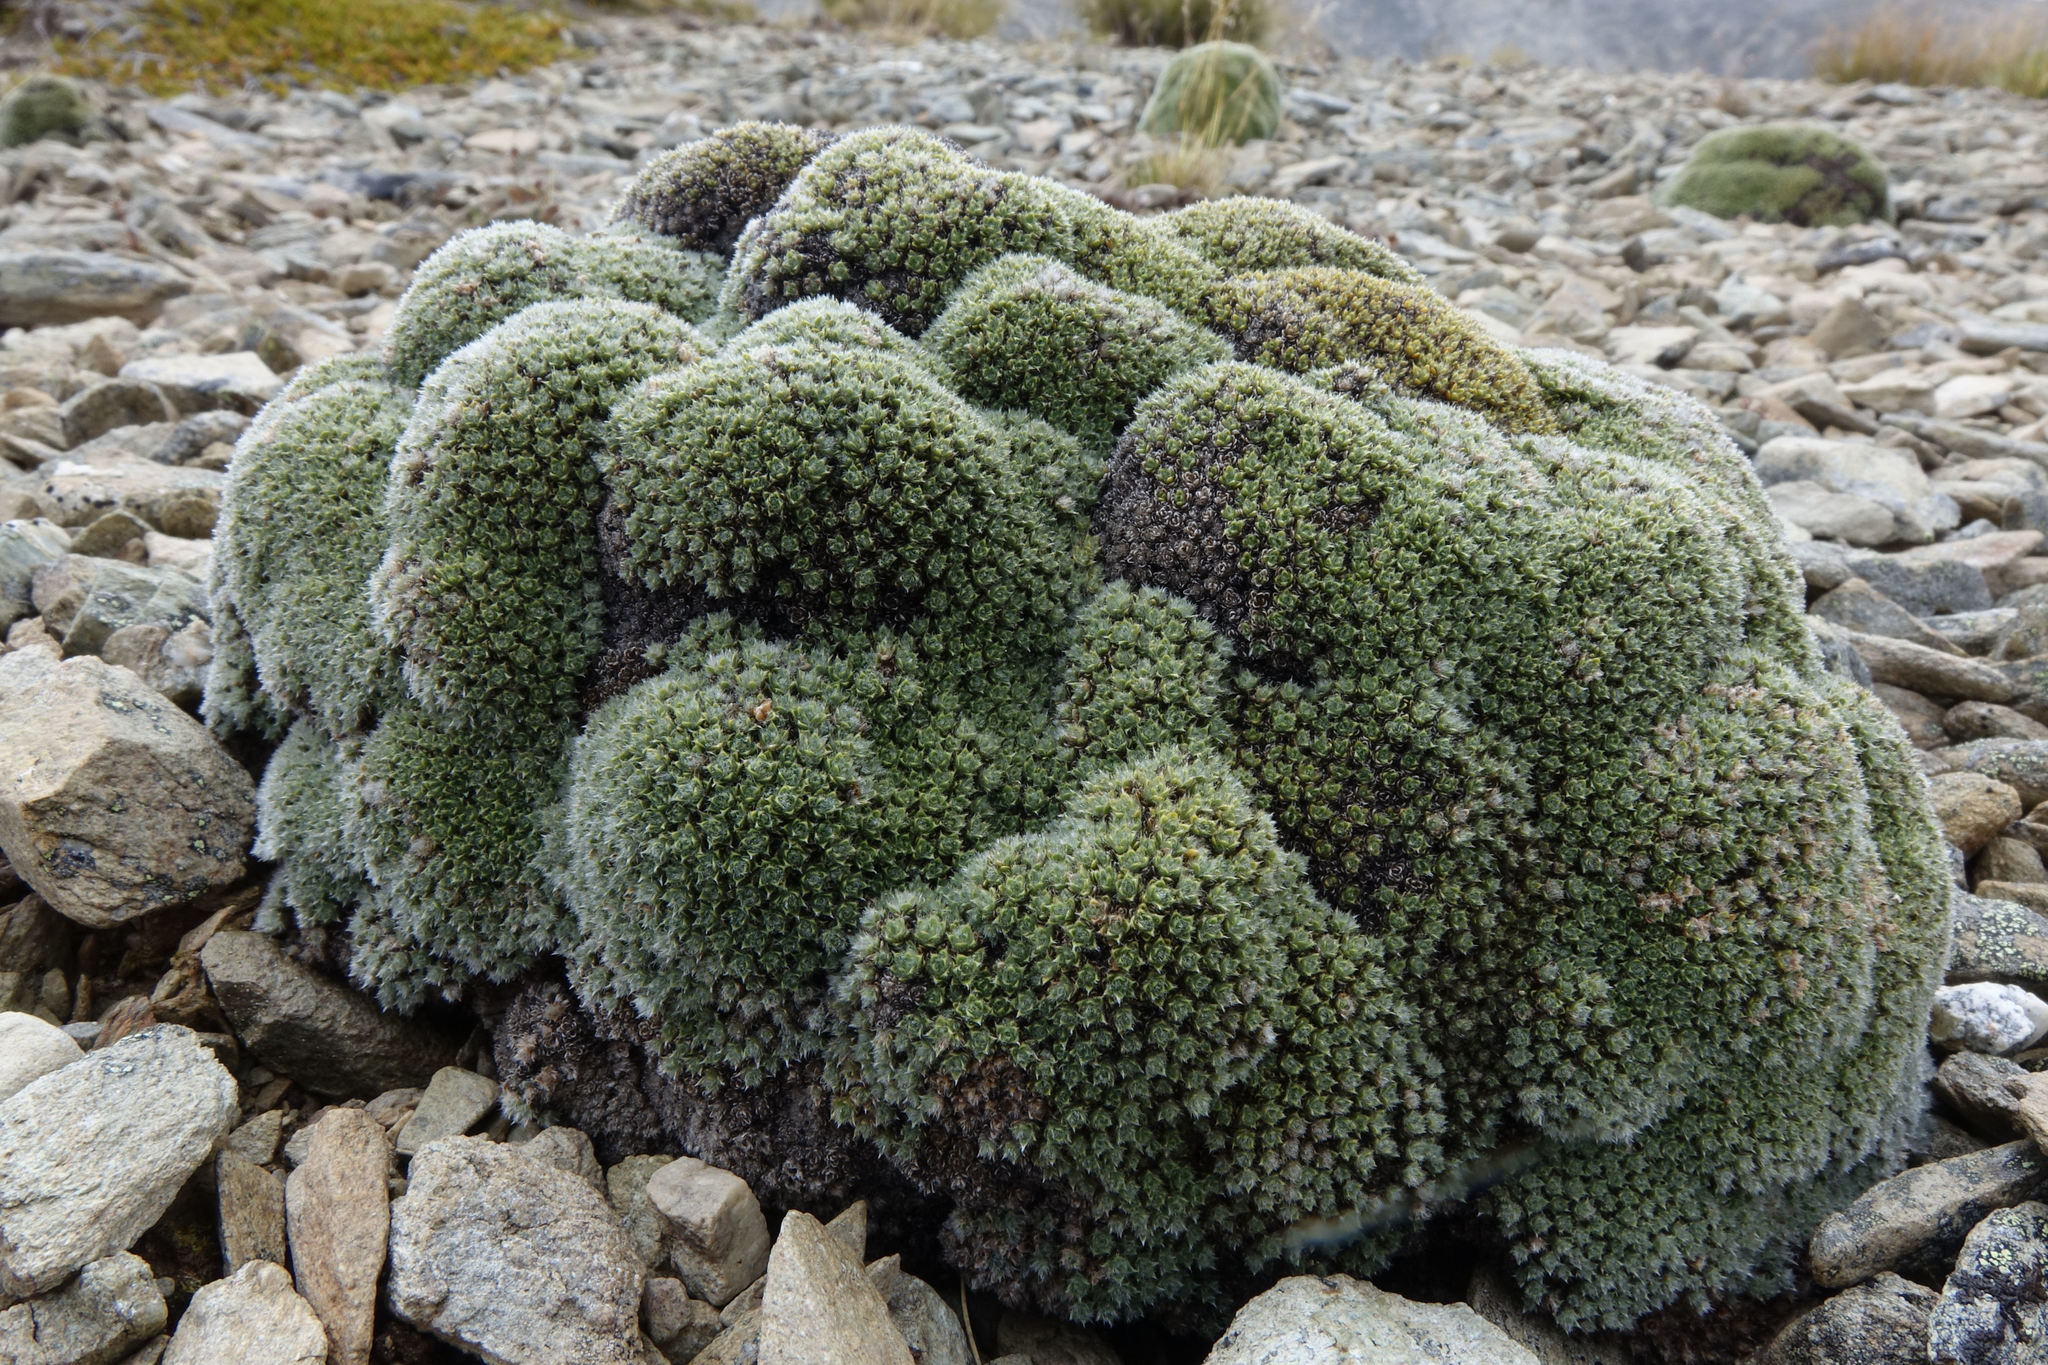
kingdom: Plantae
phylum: Tracheophyta
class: Magnoliopsida
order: Lamiales
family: Plantaginaceae
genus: Veronica
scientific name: Veronica thomsonii
